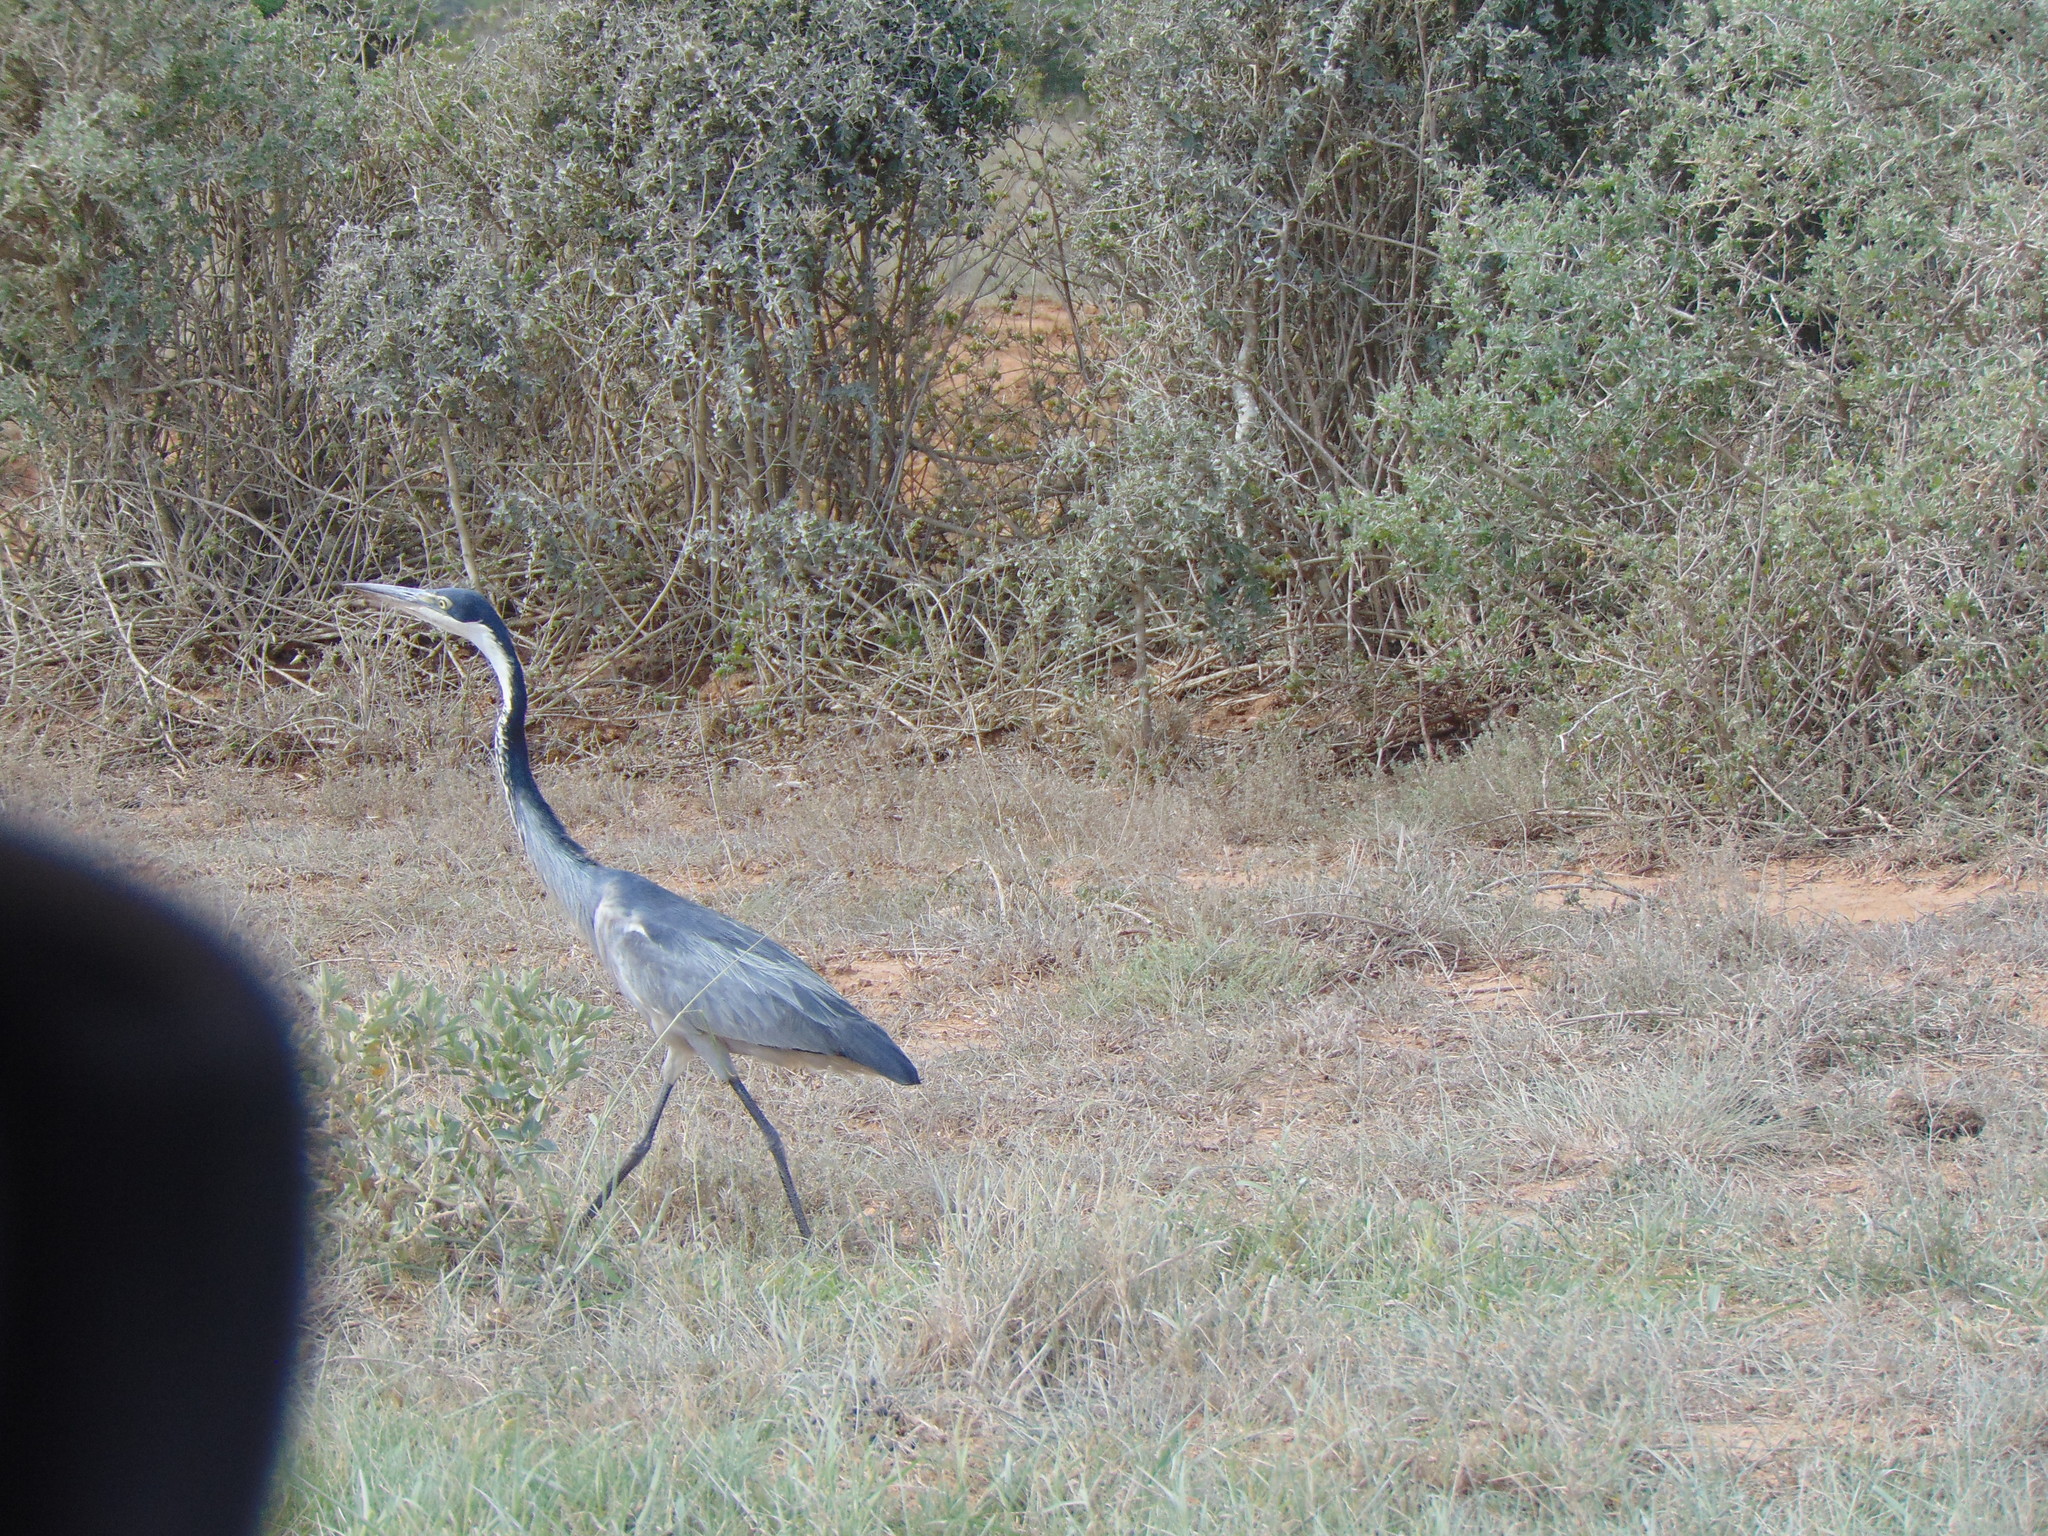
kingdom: Animalia
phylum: Chordata
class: Aves
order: Pelecaniformes
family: Ardeidae
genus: Ardea
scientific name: Ardea melanocephala
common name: Black-headed heron
